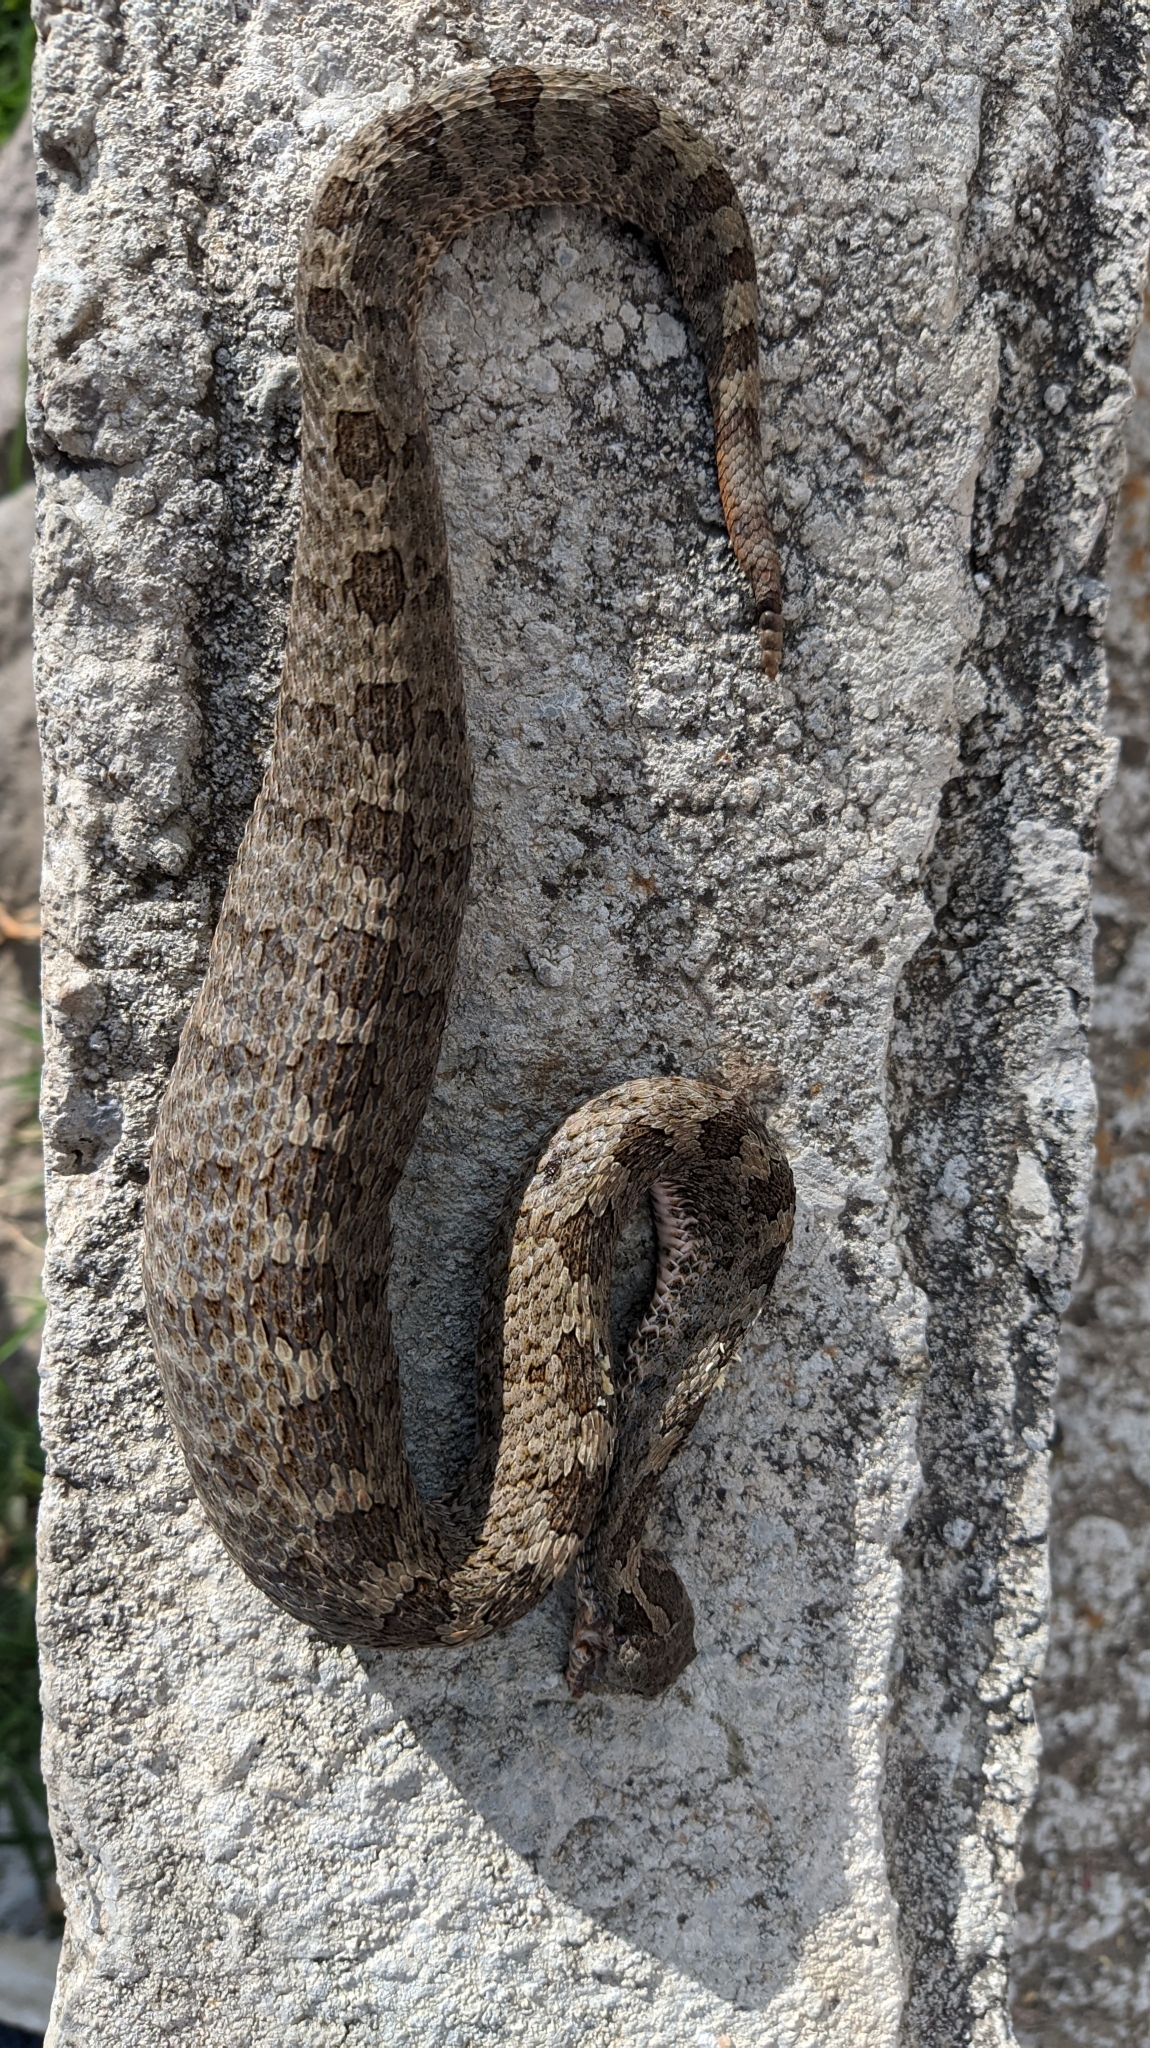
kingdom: Animalia
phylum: Chordata
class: Squamata
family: Viperidae
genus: Crotalus
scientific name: Crotalus aquilus
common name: Queretaran dusky rattlesnake
